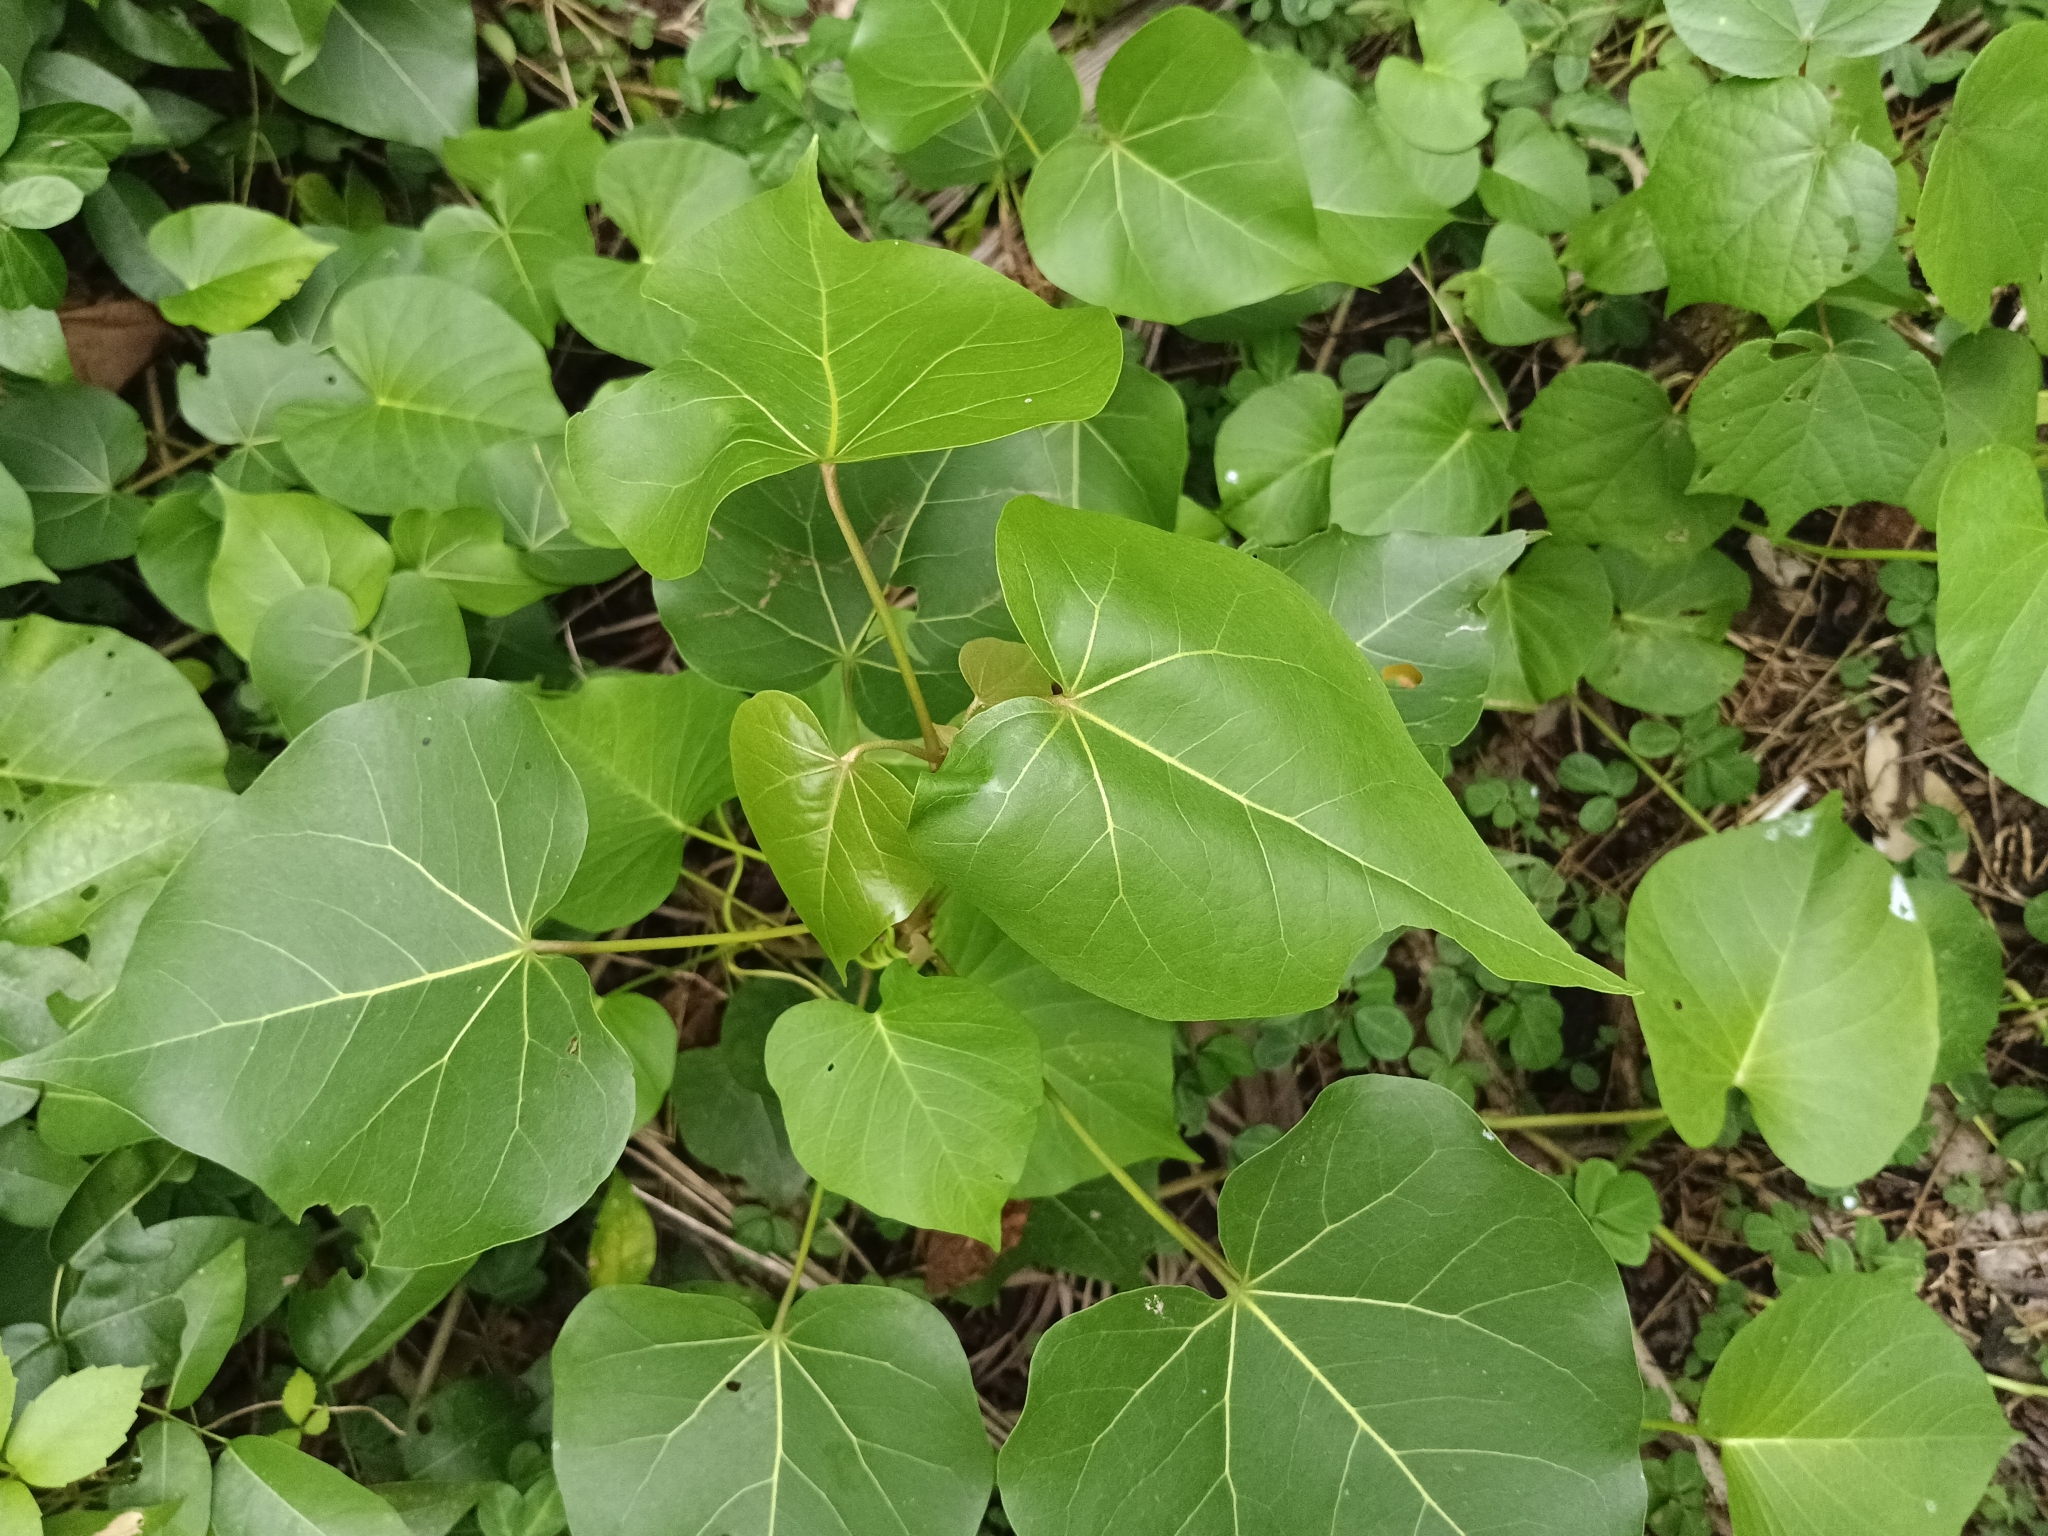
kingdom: Plantae
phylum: Tracheophyta
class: Magnoliopsida
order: Malvales
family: Malvaceae
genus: Thespesia
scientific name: Thespesia populnea
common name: Seaside mahoe
